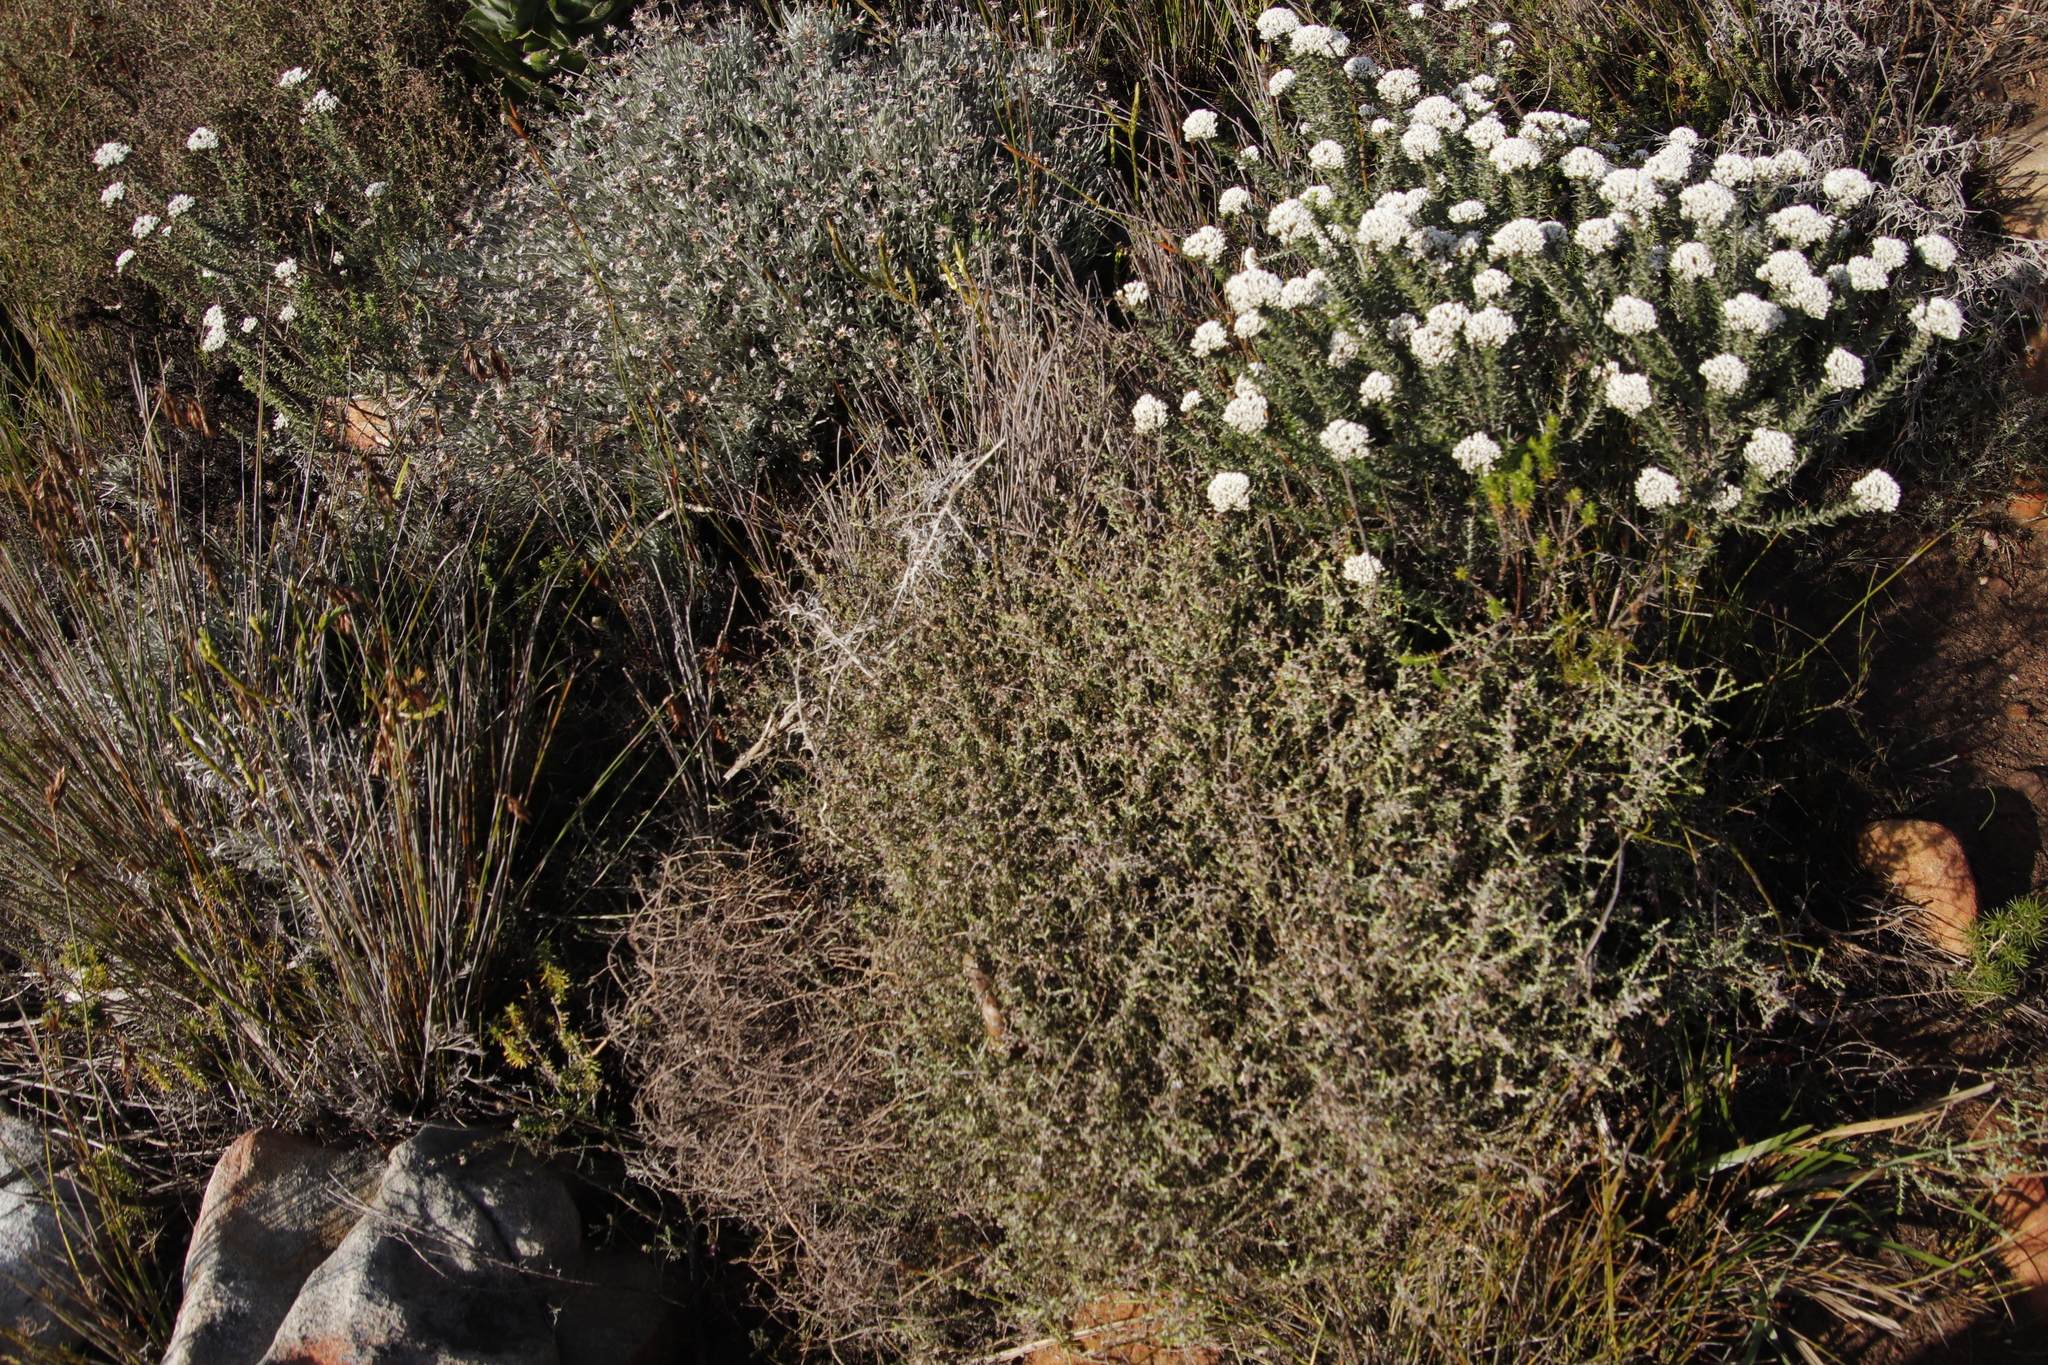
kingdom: Plantae
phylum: Tracheophyta
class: Magnoliopsida
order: Asterales
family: Asteraceae
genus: Myrovernix
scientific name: Myrovernix scaber
